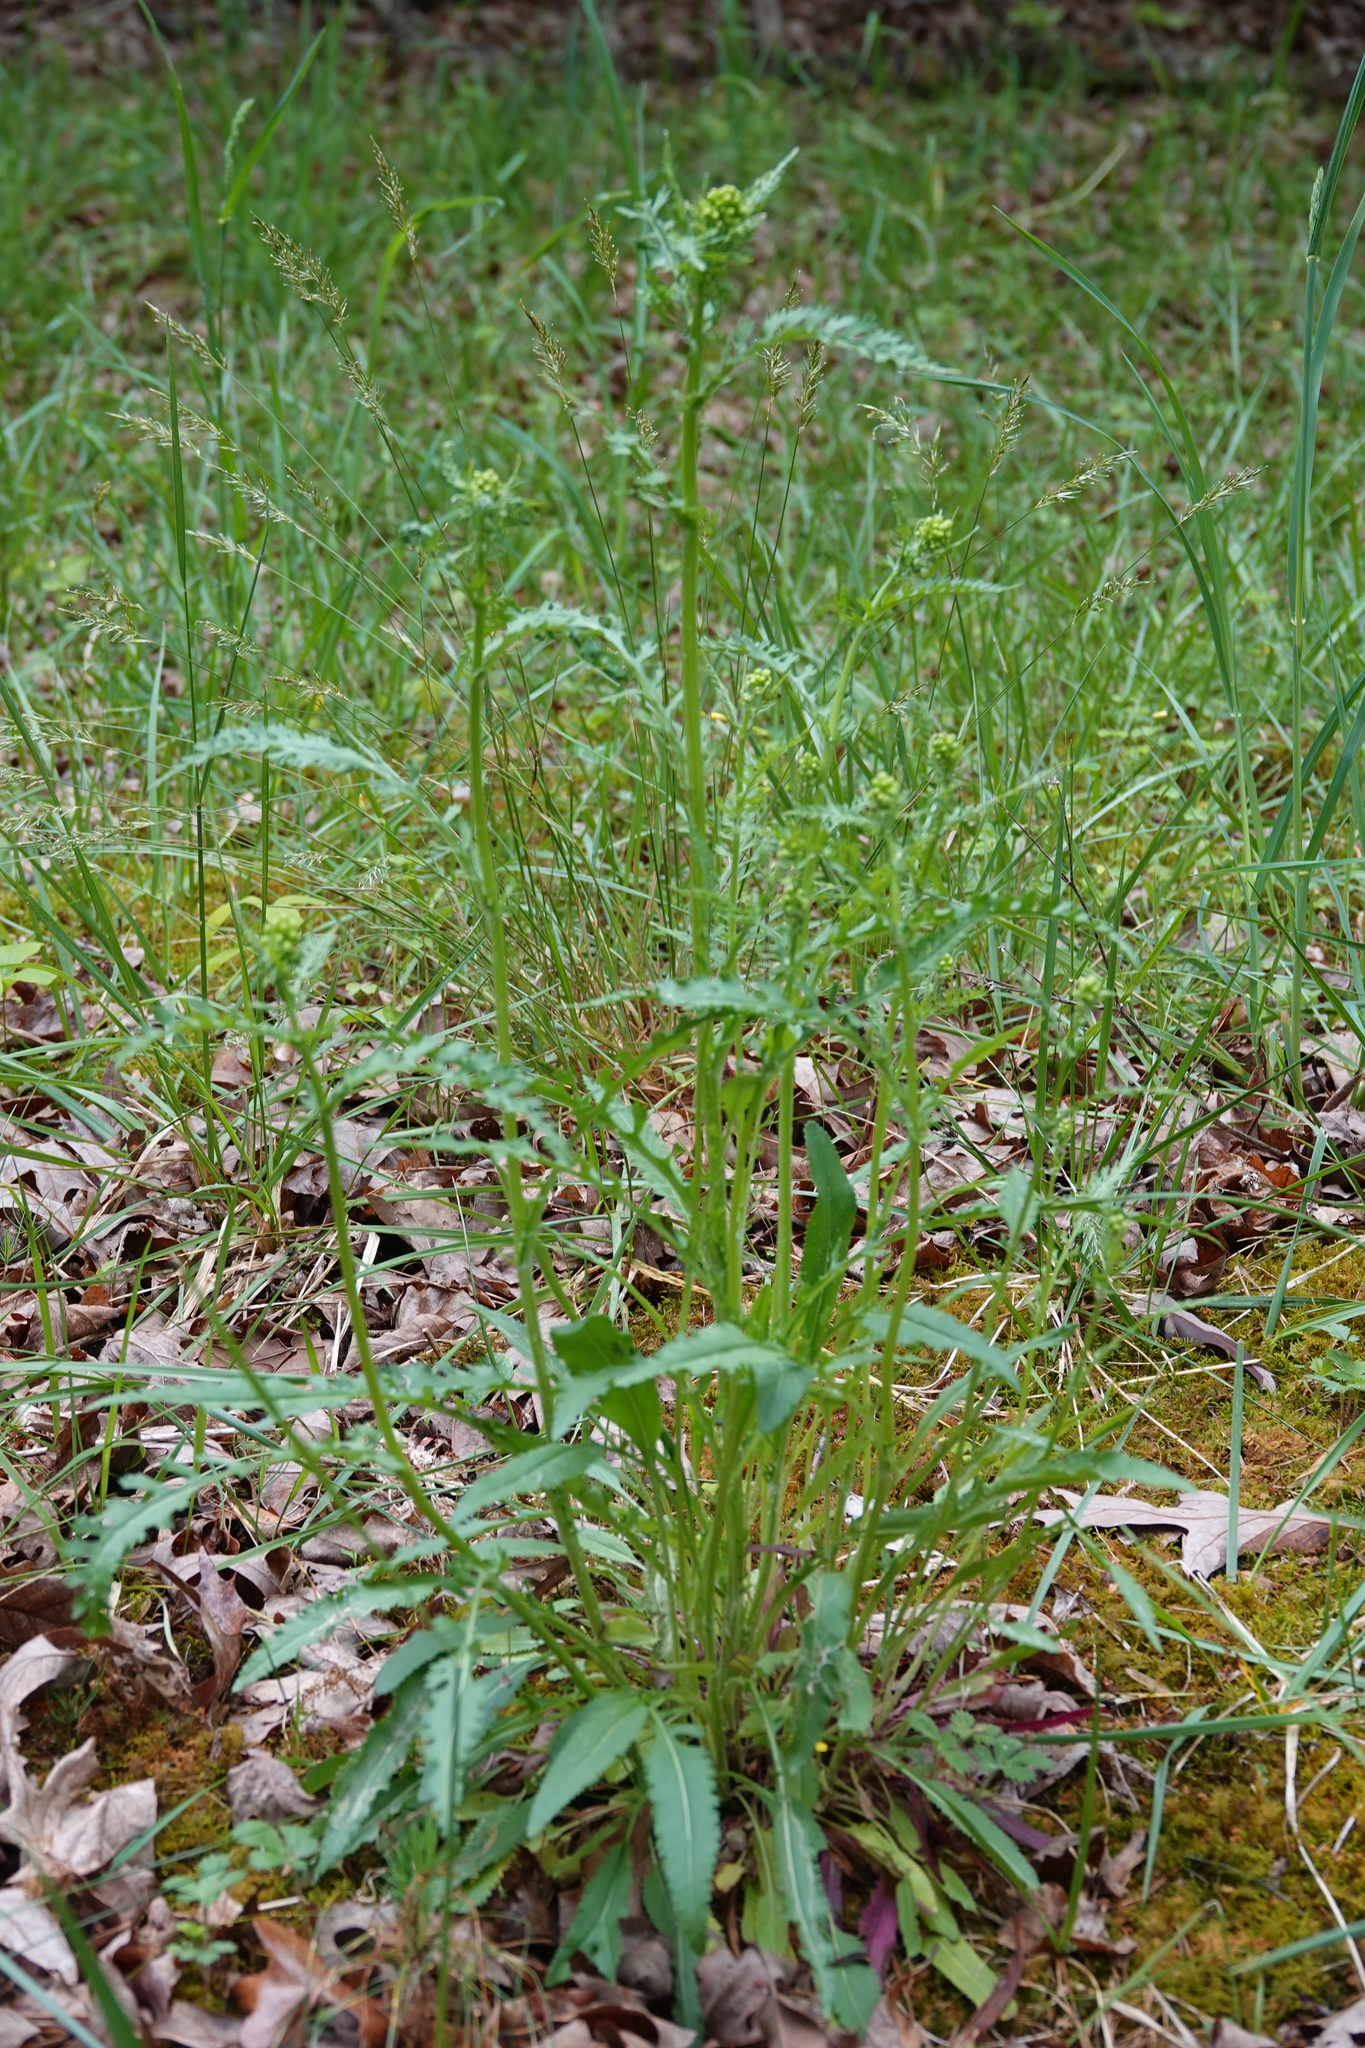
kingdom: Plantae
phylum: Tracheophyta
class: Magnoliopsida
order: Asterales
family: Asteraceae
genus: Packera
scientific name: Packera anonyma
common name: Small ragwort
